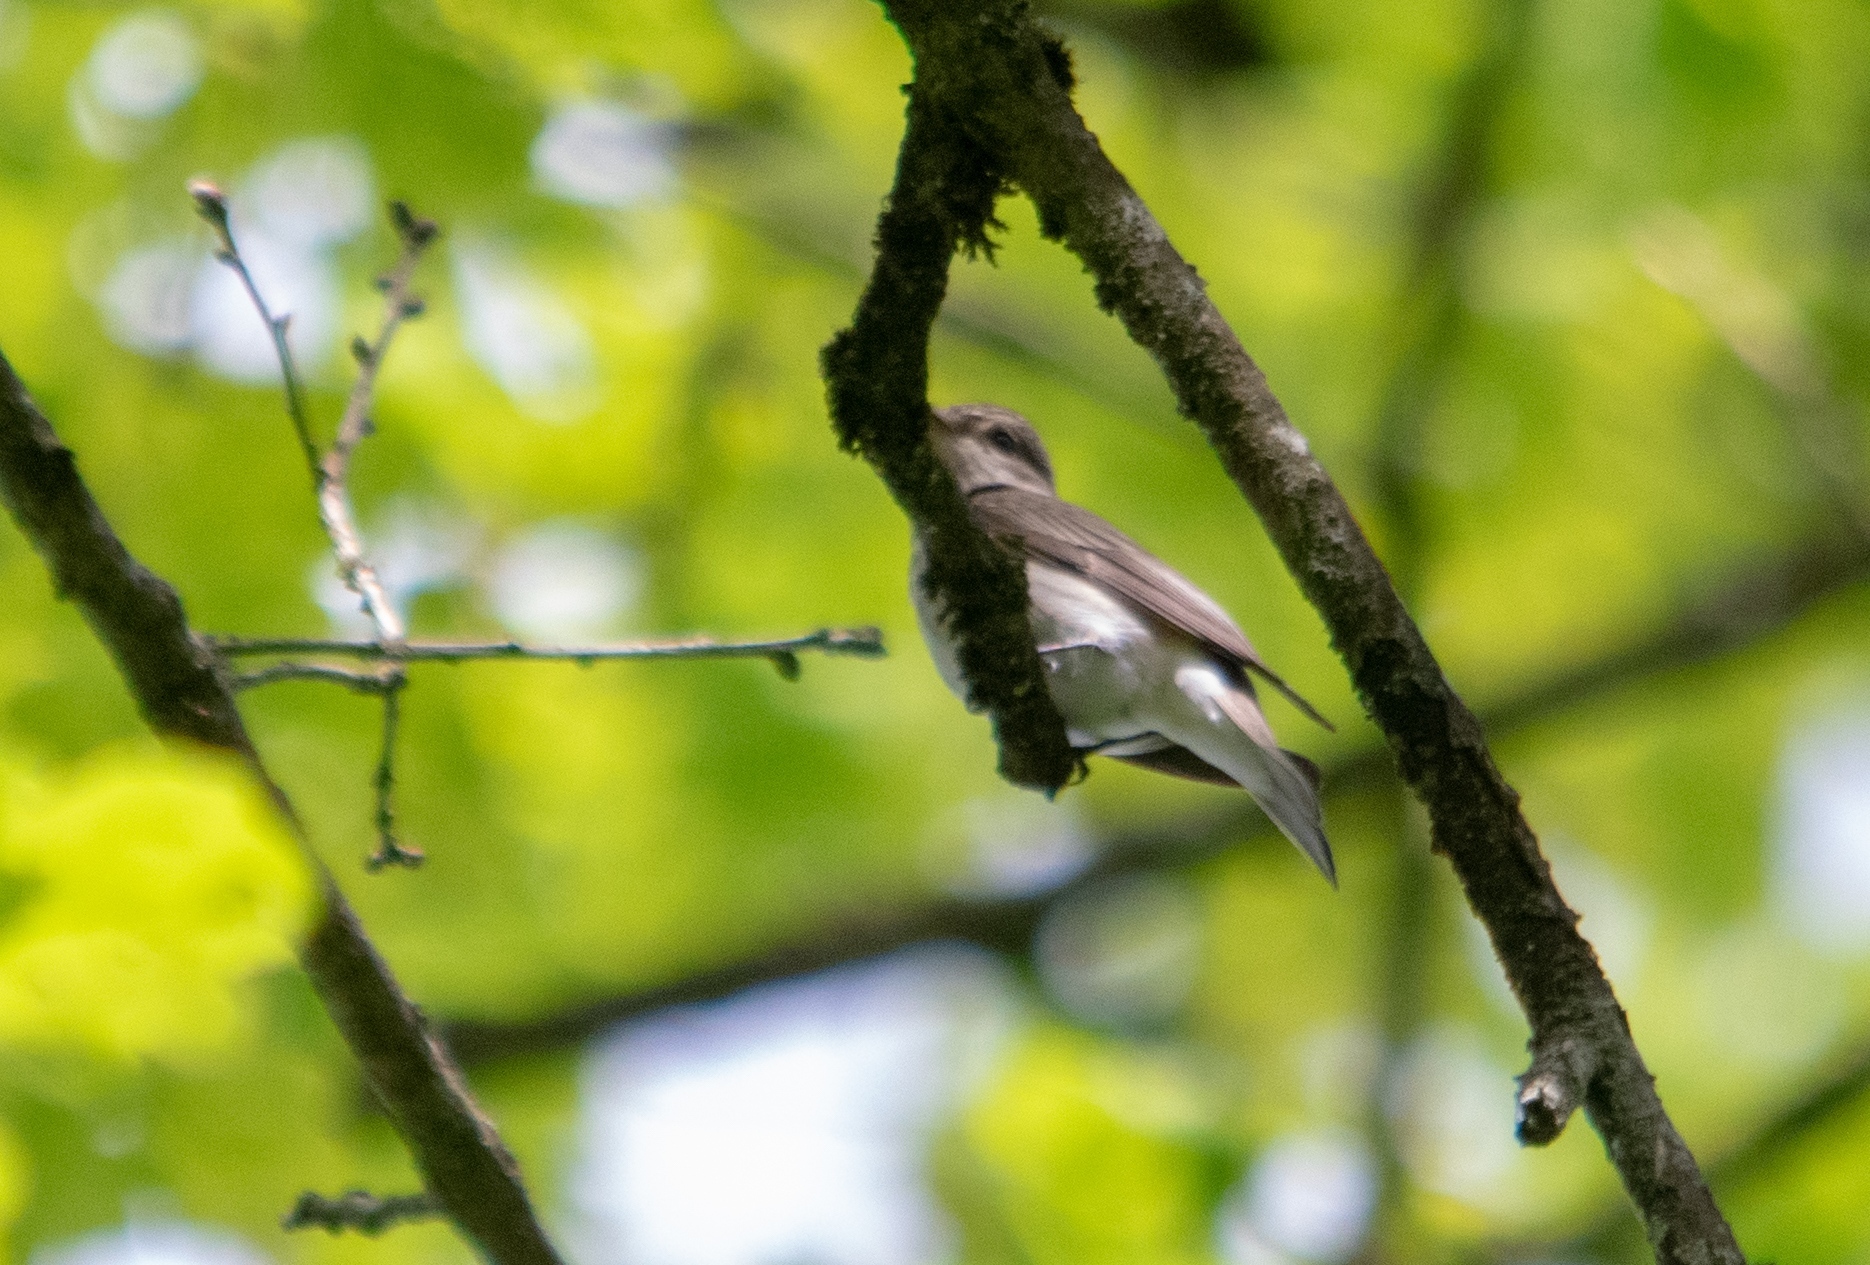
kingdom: Animalia
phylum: Chordata
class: Aves
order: Passeriformes
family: Muscicapidae
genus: Muscicapa
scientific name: Muscicapa striata
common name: Spotted flycatcher
